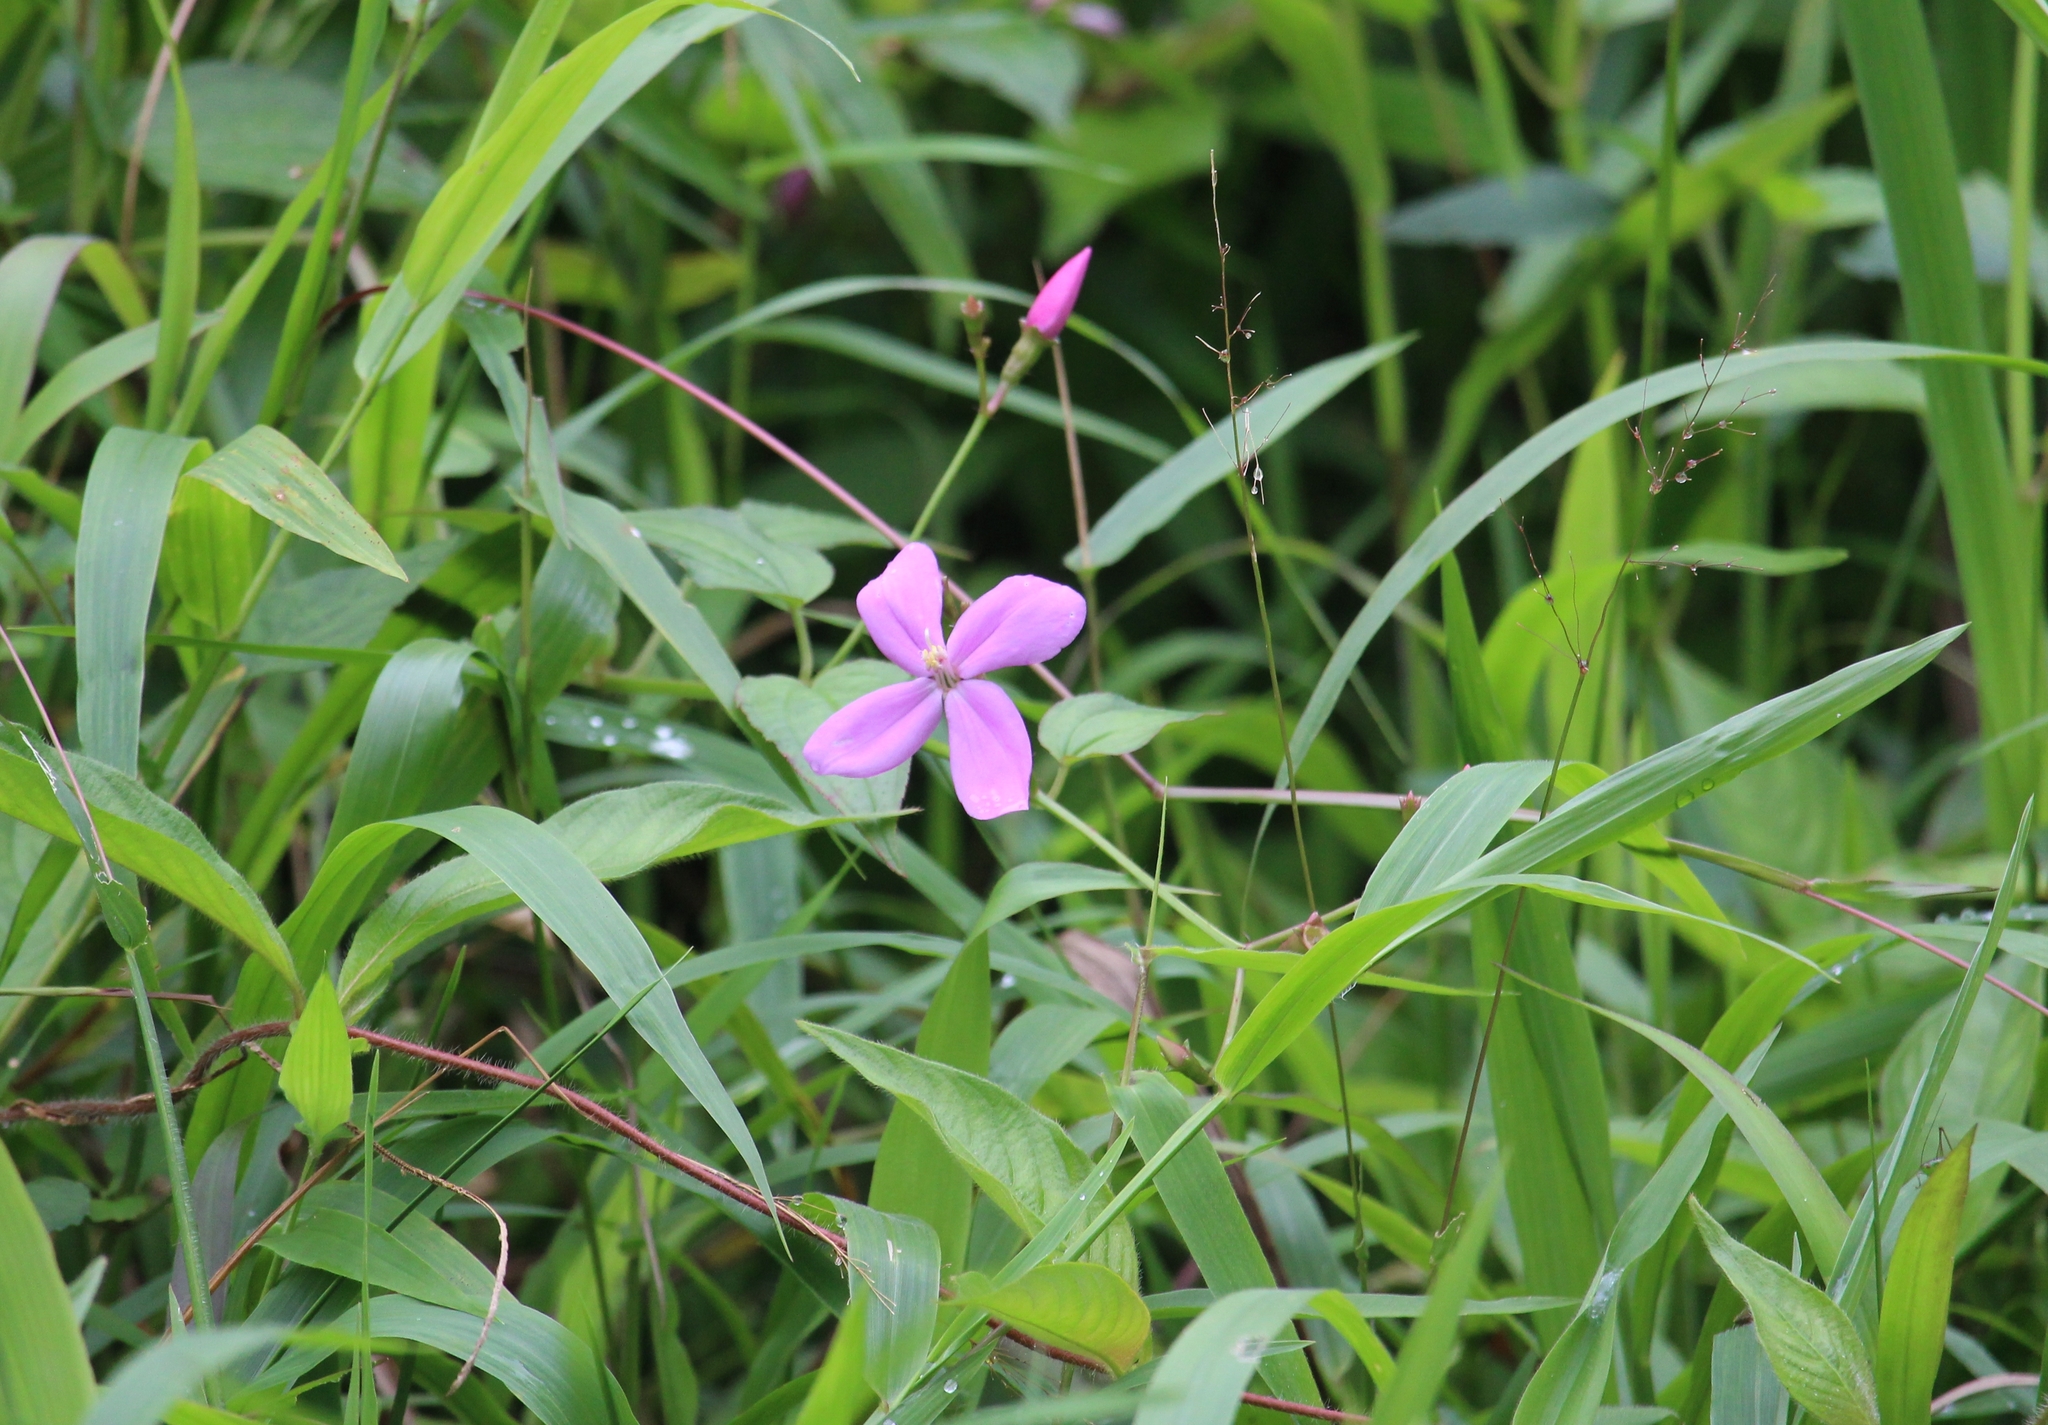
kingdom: Plantae
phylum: Tracheophyta
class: Magnoliopsida
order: Myrtales
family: Melastomataceae
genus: Arthrostemma
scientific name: Arthrostemma ciliatum
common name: Everblooming eavender
